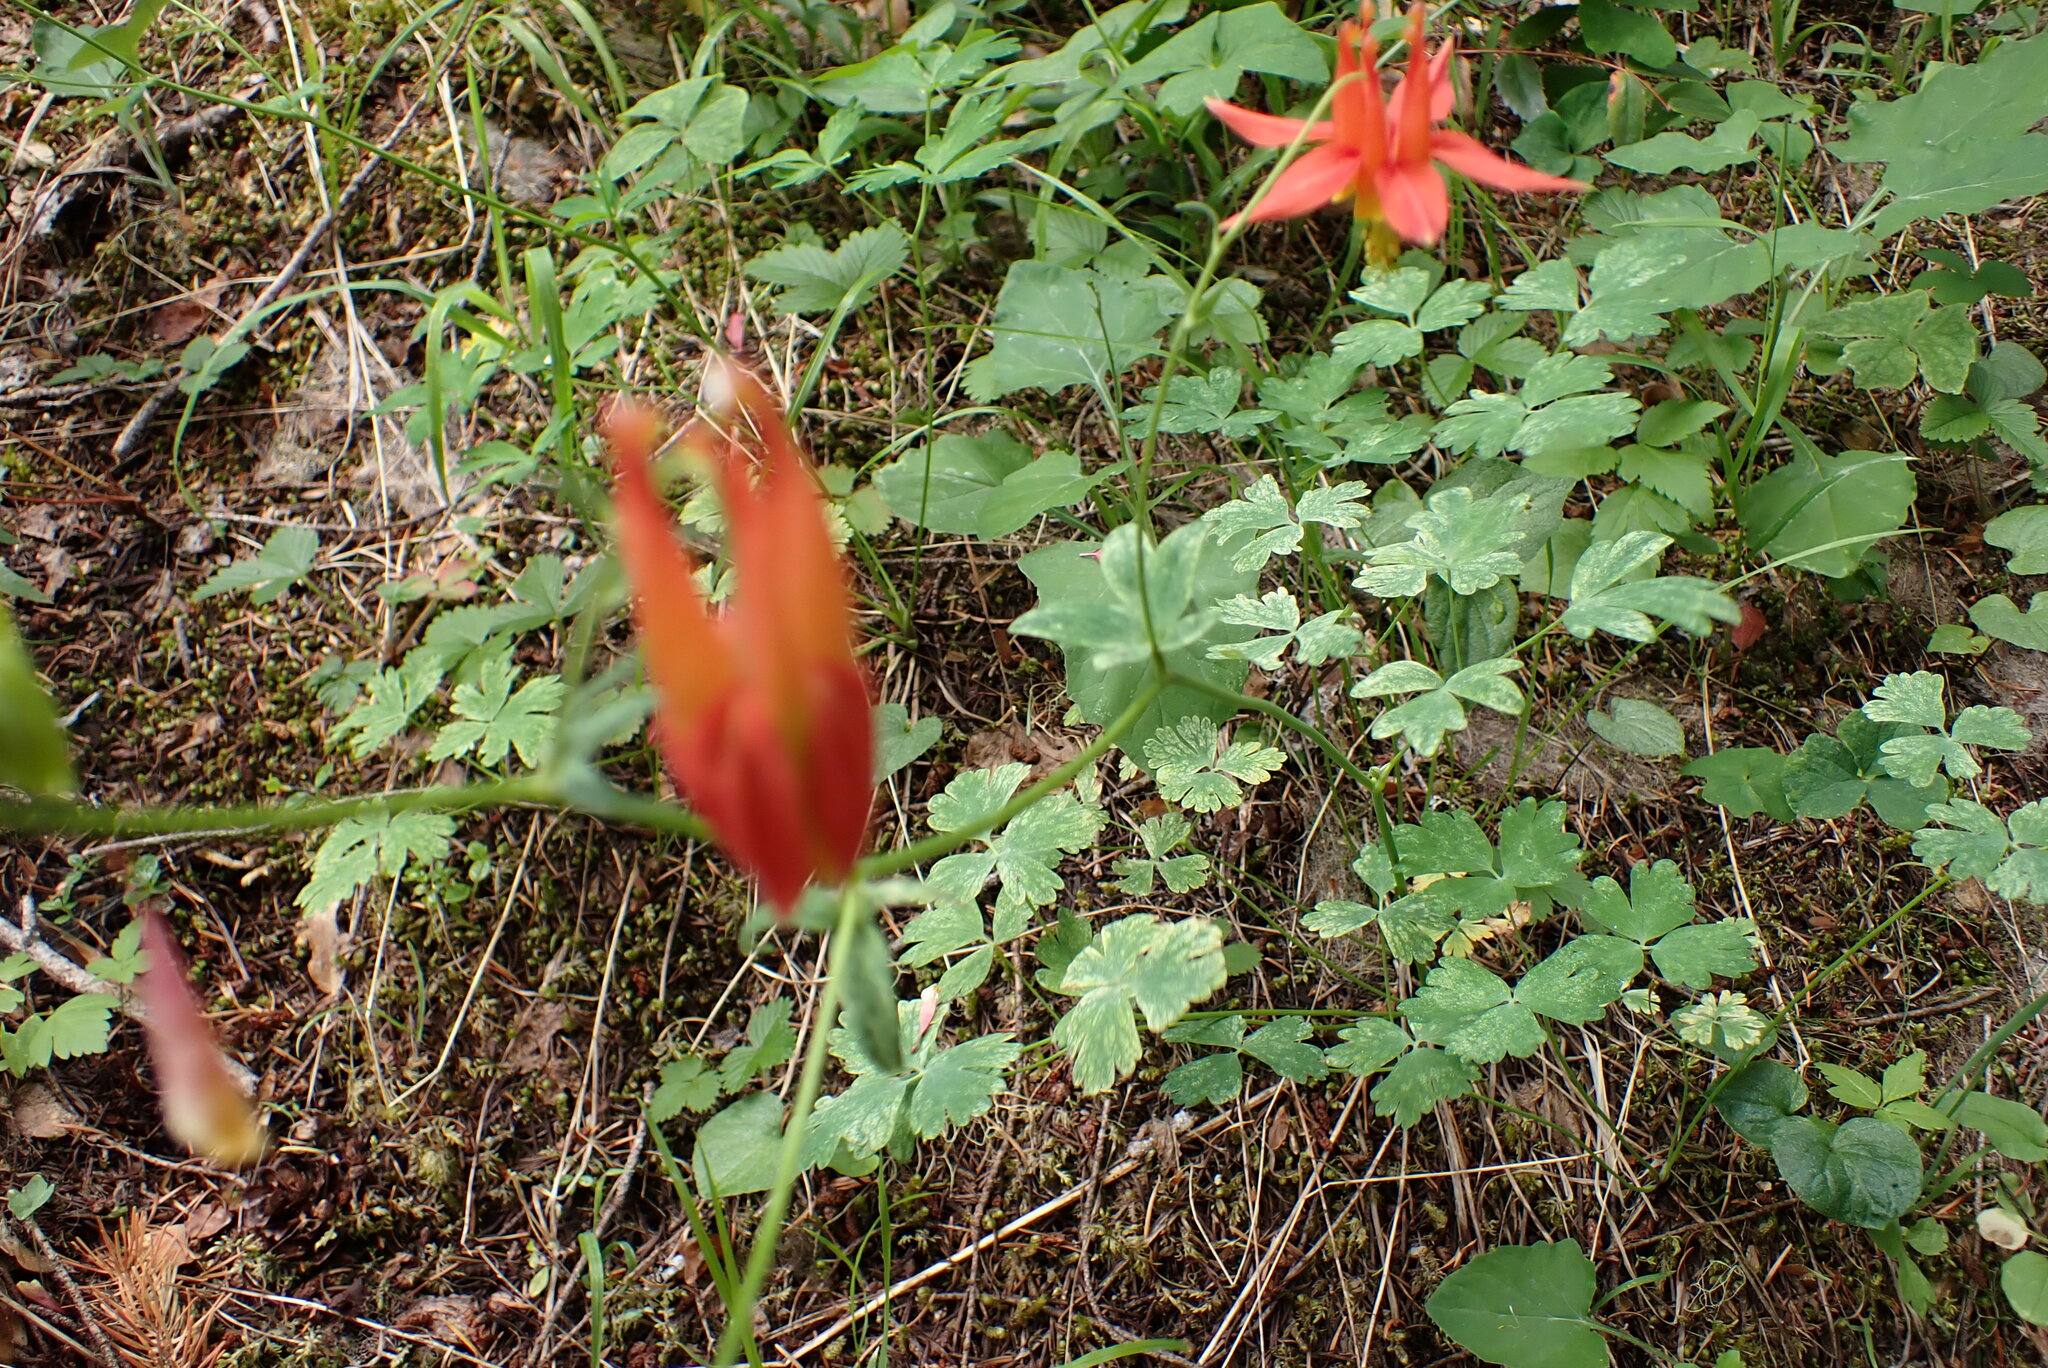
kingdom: Plantae
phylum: Tracheophyta
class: Magnoliopsida
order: Ranunculales
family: Ranunculaceae
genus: Aquilegia
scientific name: Aquilegia formosa
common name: Sitka columbine
